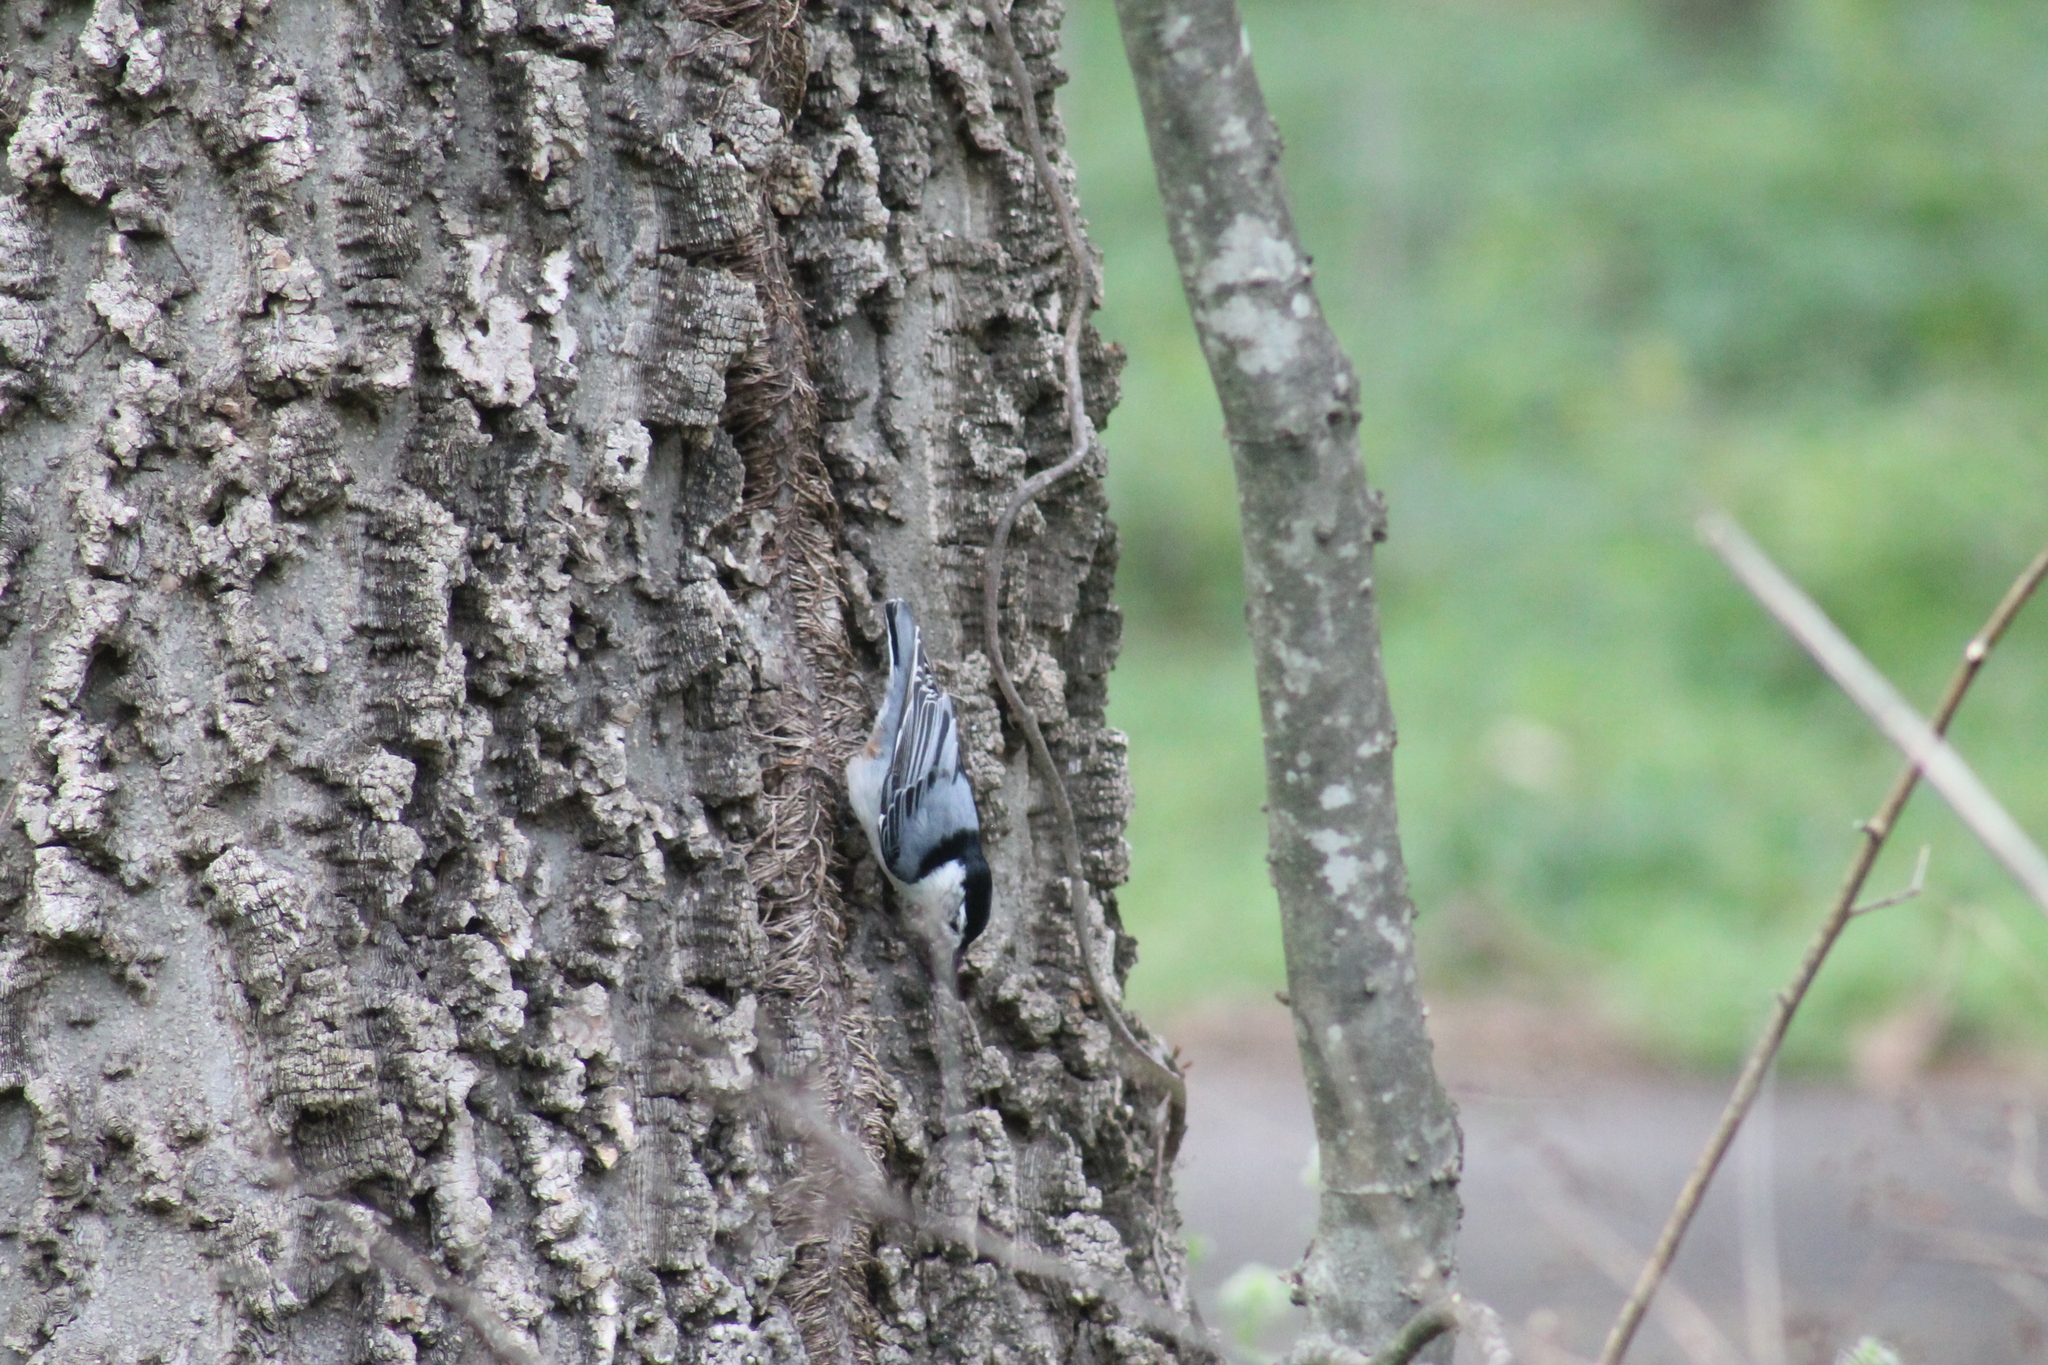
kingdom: Animalia
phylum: Chordata
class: Aves
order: Passeriformes
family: Sittidae
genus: Sitta
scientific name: Sitta carolinensis
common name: White-breasted nuthatch
